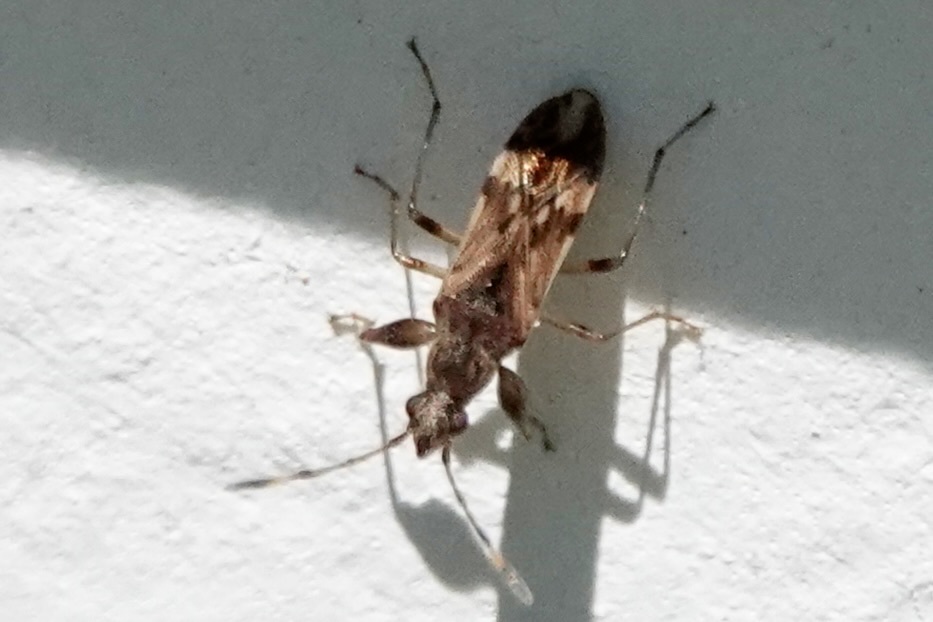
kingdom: Animalia
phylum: Arthropoda
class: Insecta
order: Hemiptera
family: Rhyparochromidae
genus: Neopamera
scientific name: Neopamera albocincta
